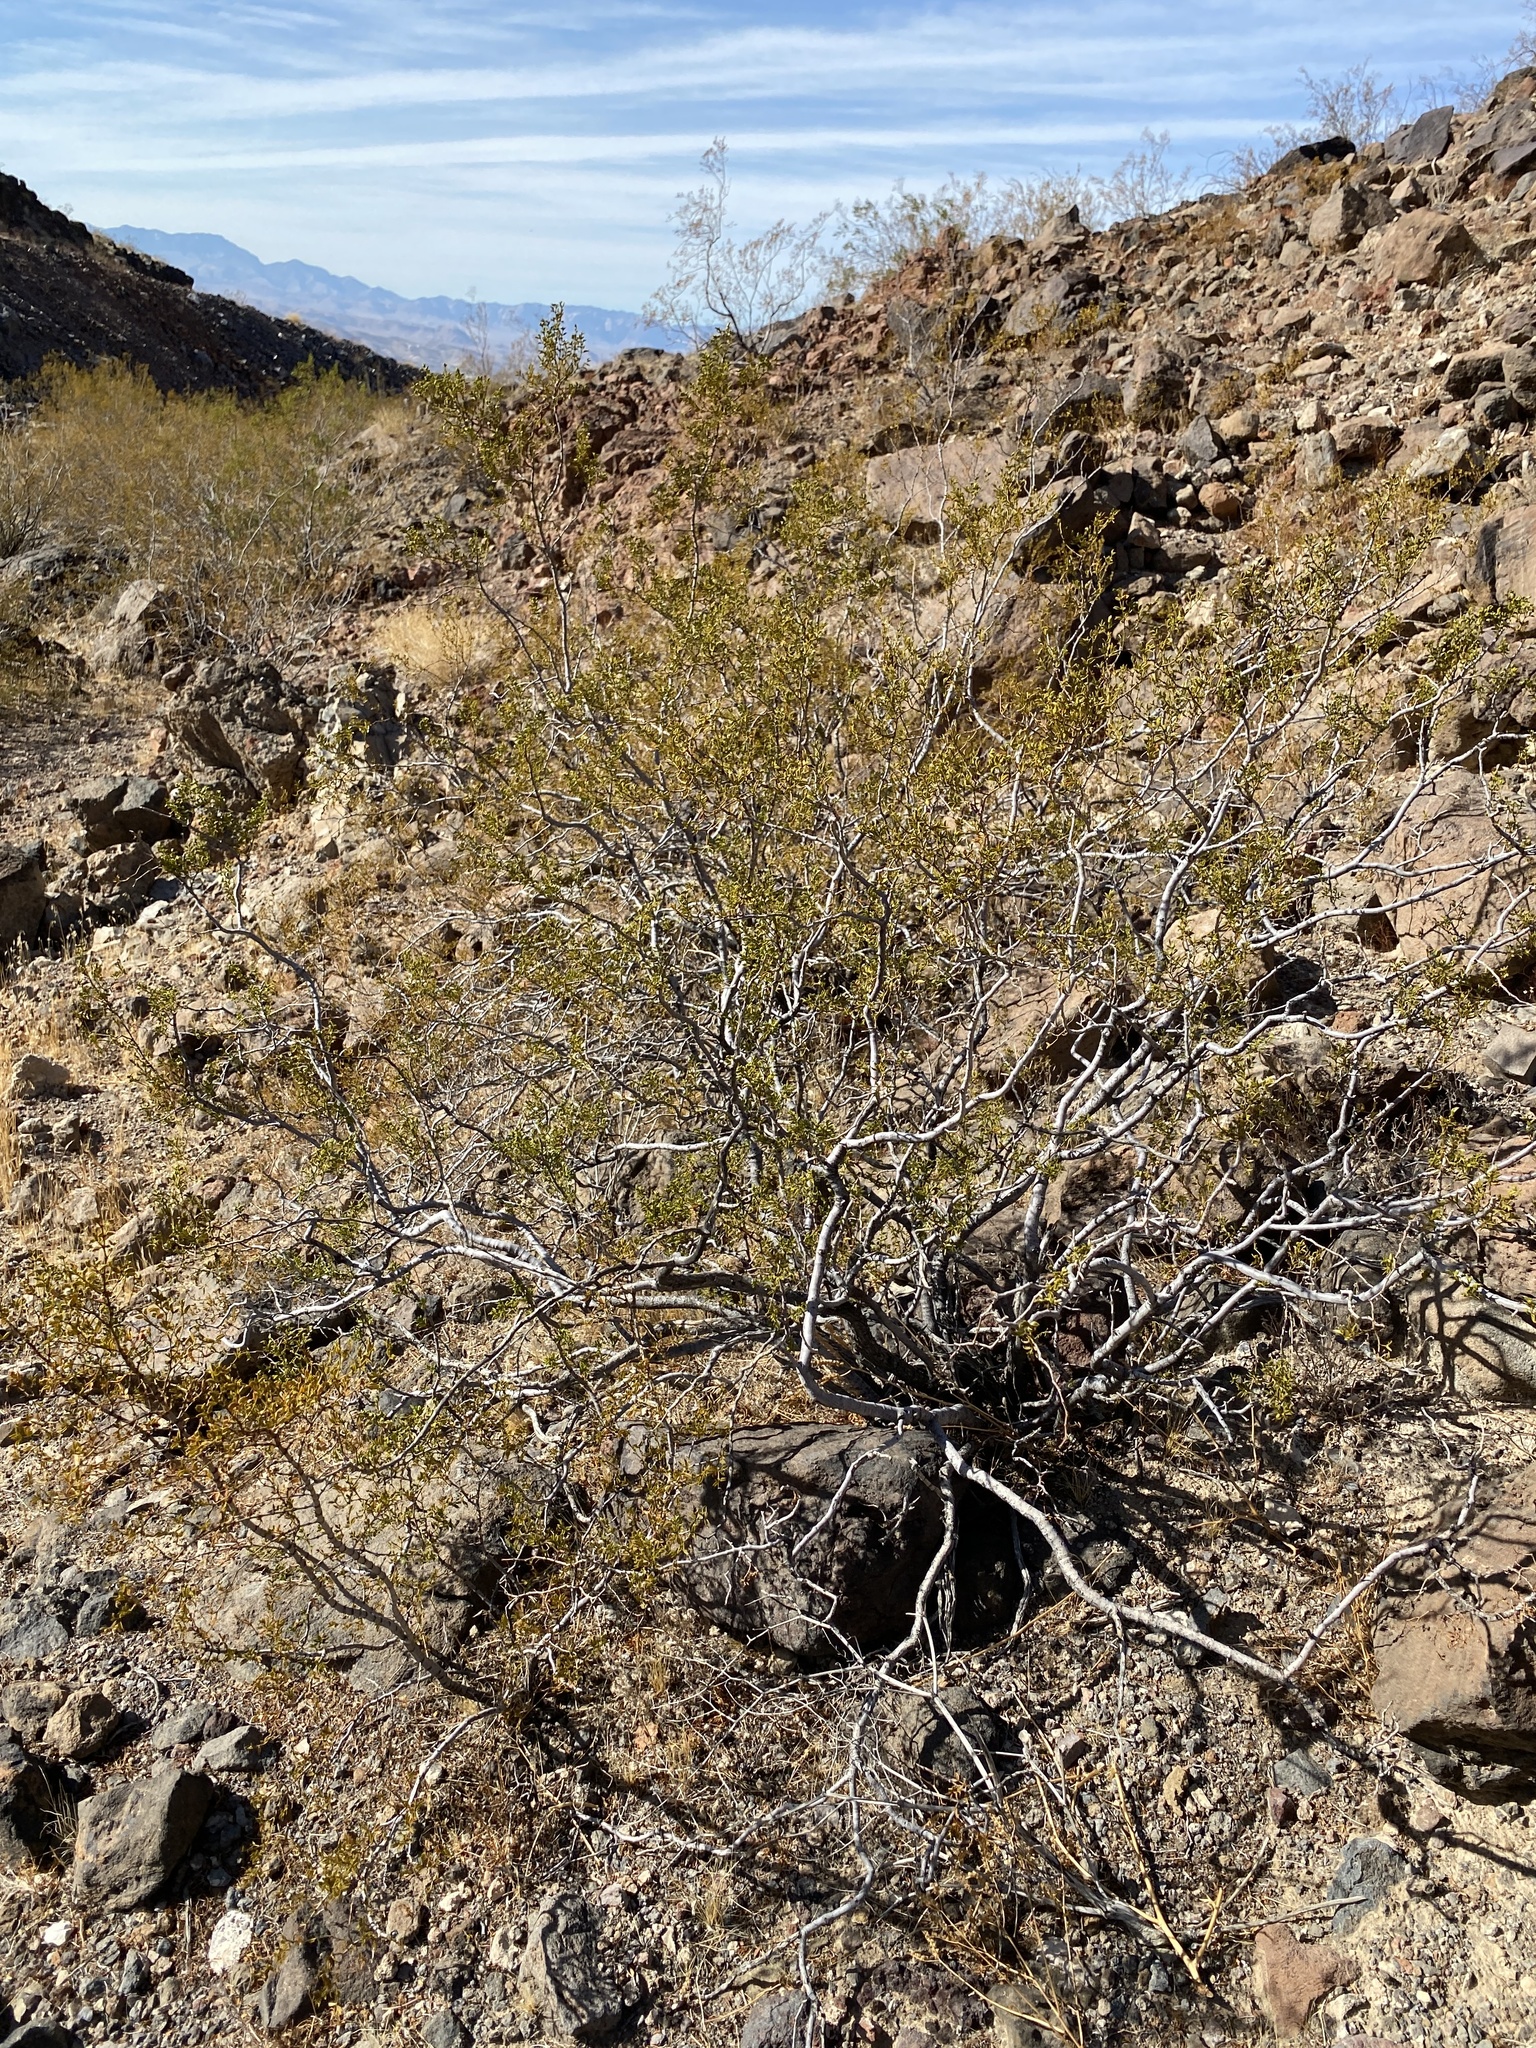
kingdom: Plantae
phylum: Tracheophyta
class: Magnoliopsida
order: Zygophyllales
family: Zygophyllaceae
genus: Larrea
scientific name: Larrea tridentata
